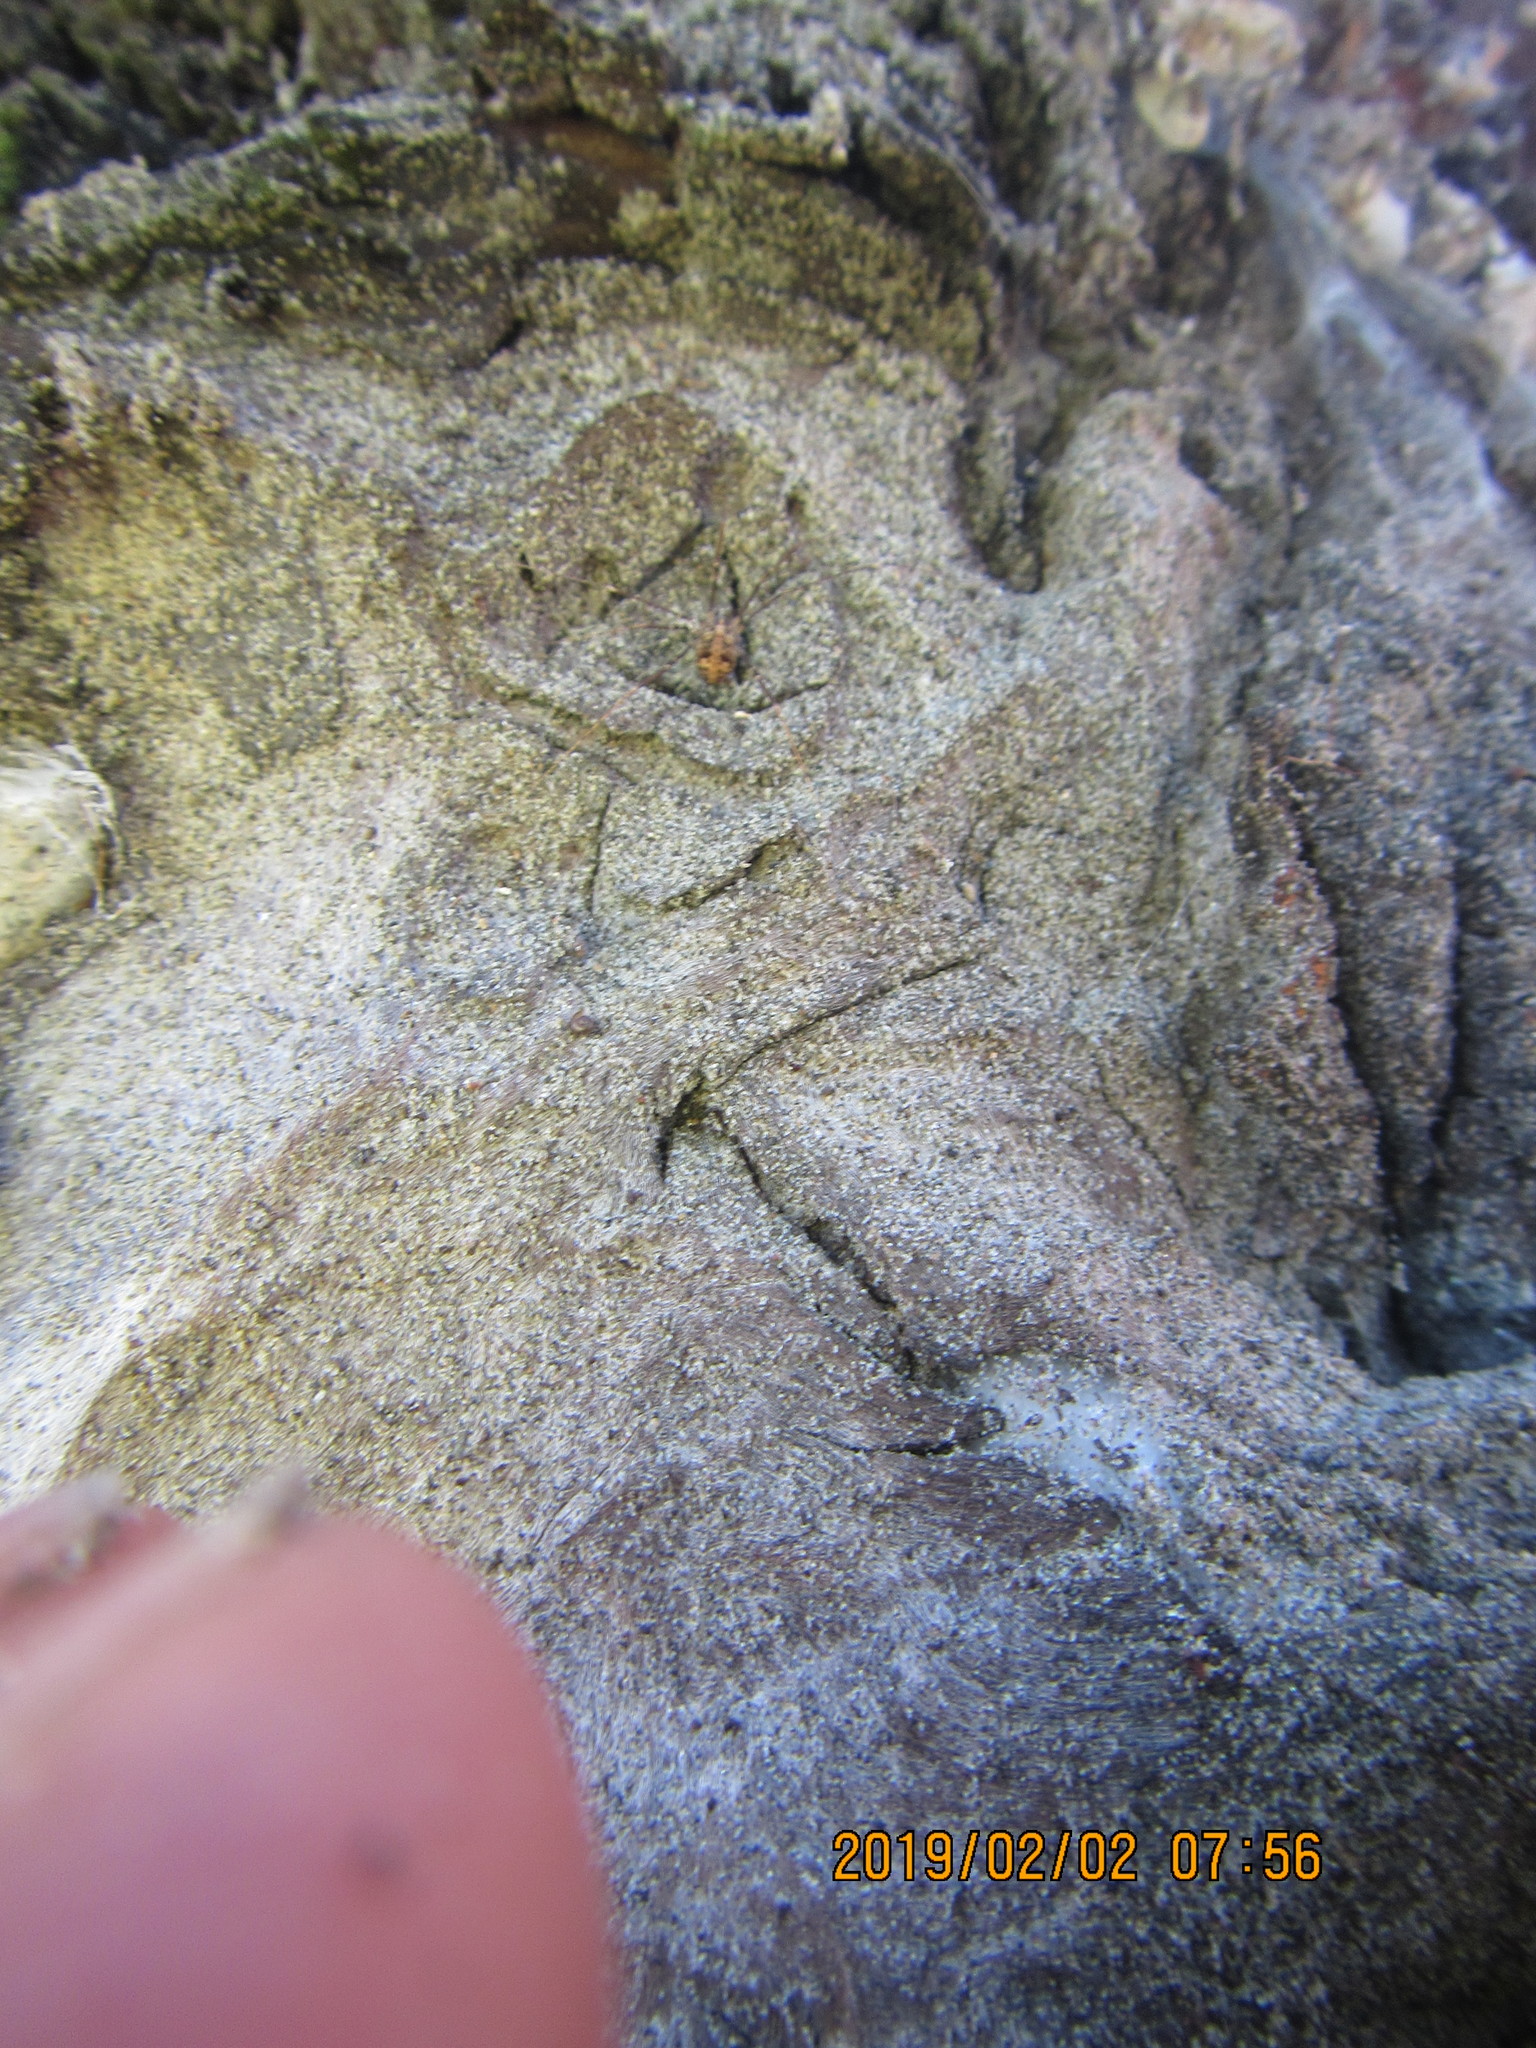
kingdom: Animalia
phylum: Arthropoda
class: Arachnida
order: Opiliones
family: Phalangiidae
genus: Phalangium
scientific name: Phalangium opilio
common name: Daddy longleg
